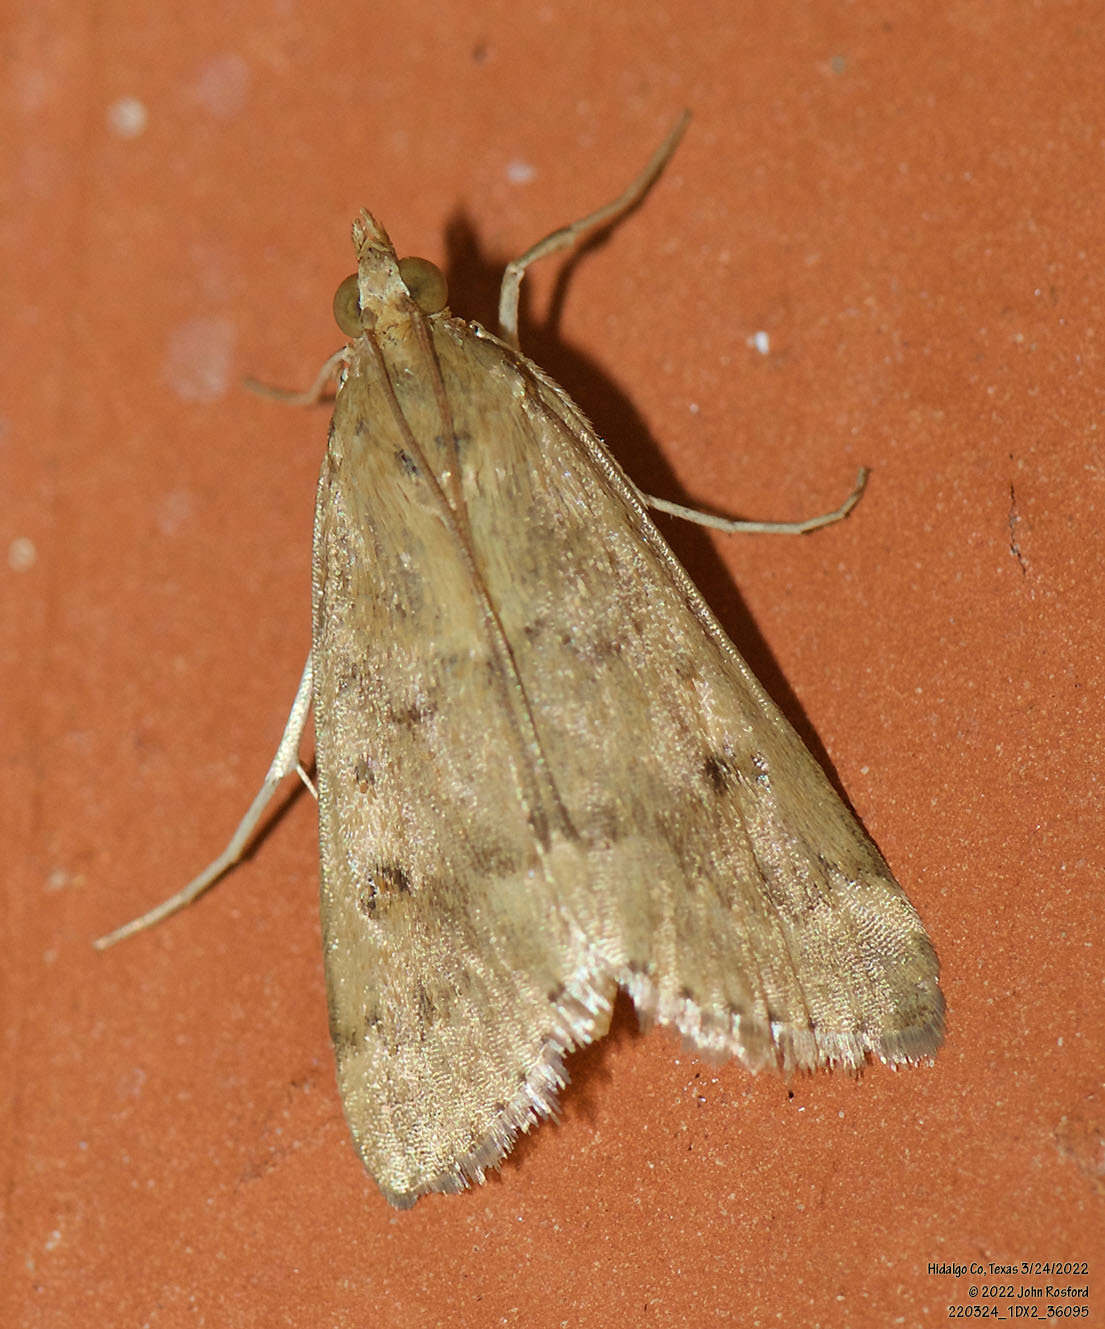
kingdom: Animalia
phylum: Arthropoda
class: Insecta
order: Lepidoptera
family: Crambidae
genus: Achyra
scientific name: Achyra rantalis
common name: Garden webworm
